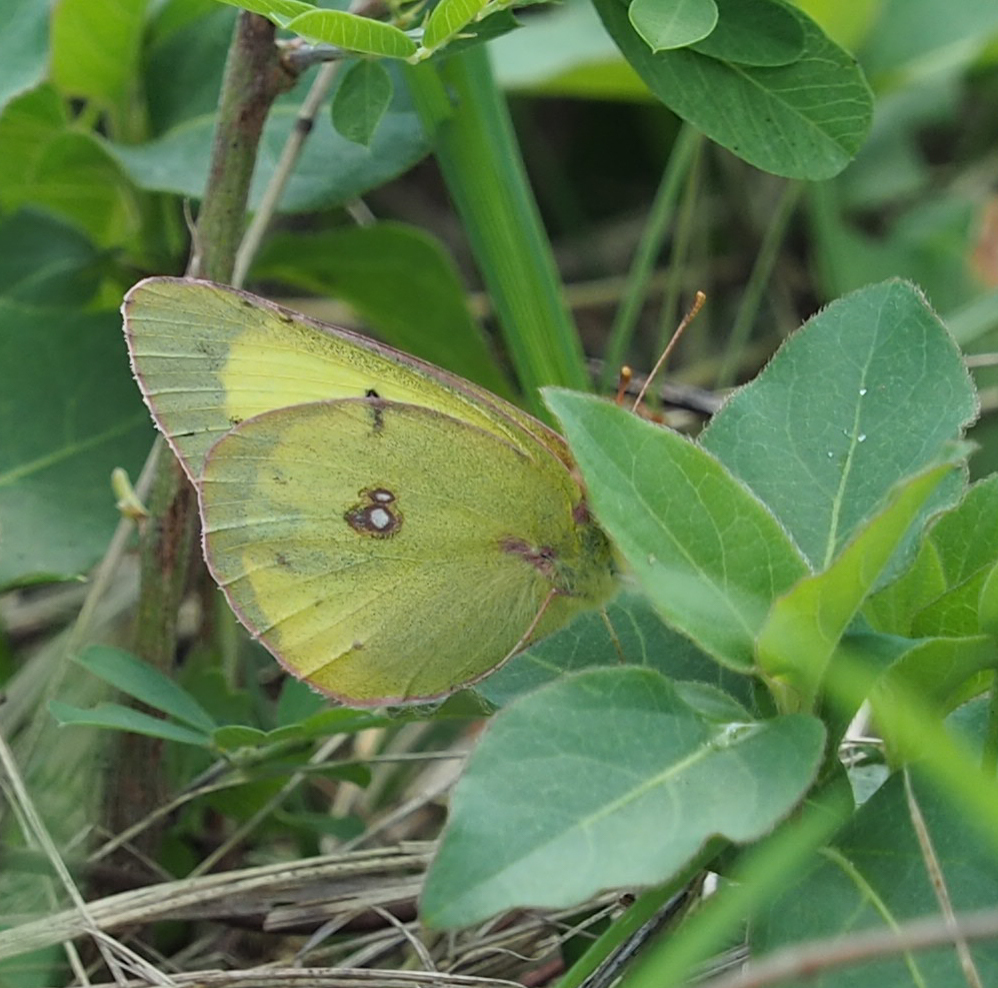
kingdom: Animalia
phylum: Arthropoda
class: Insecta
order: Lepidoptera
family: Pieridae
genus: Colias
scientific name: Colias philodice
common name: Clouded sulphur
